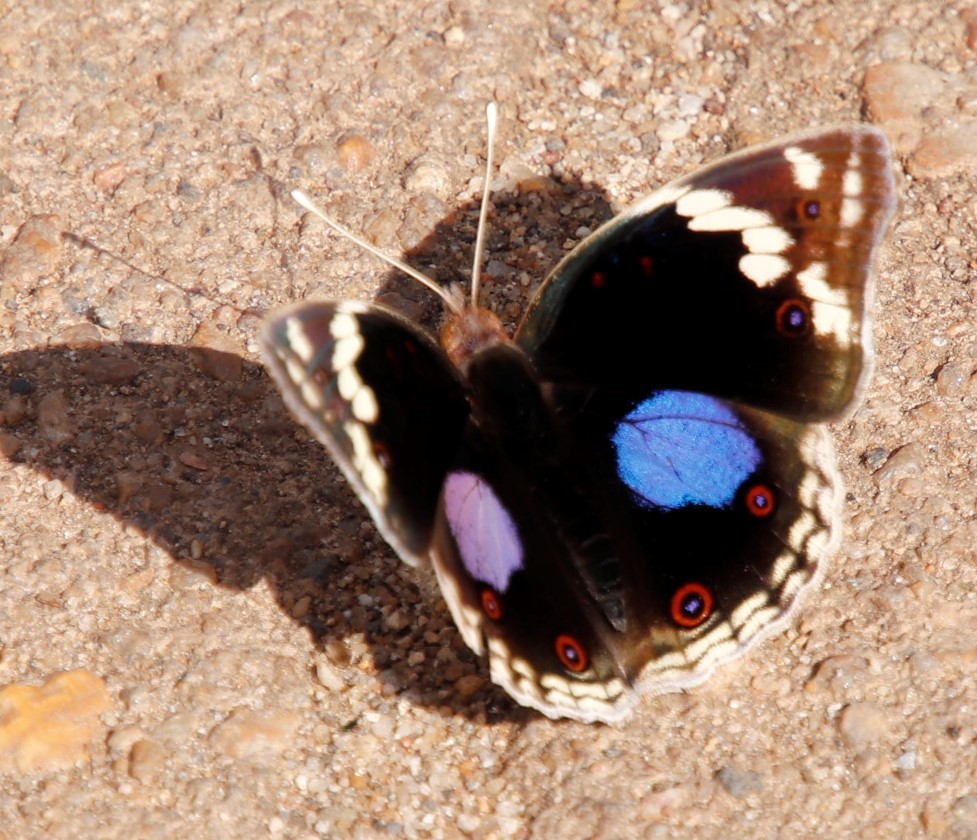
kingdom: Animalia
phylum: Arthropoda
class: Insecta
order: Lepidoptera
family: Nymphalidae
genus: Junonia
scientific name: Junonia oenone
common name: Dark blue pansy
